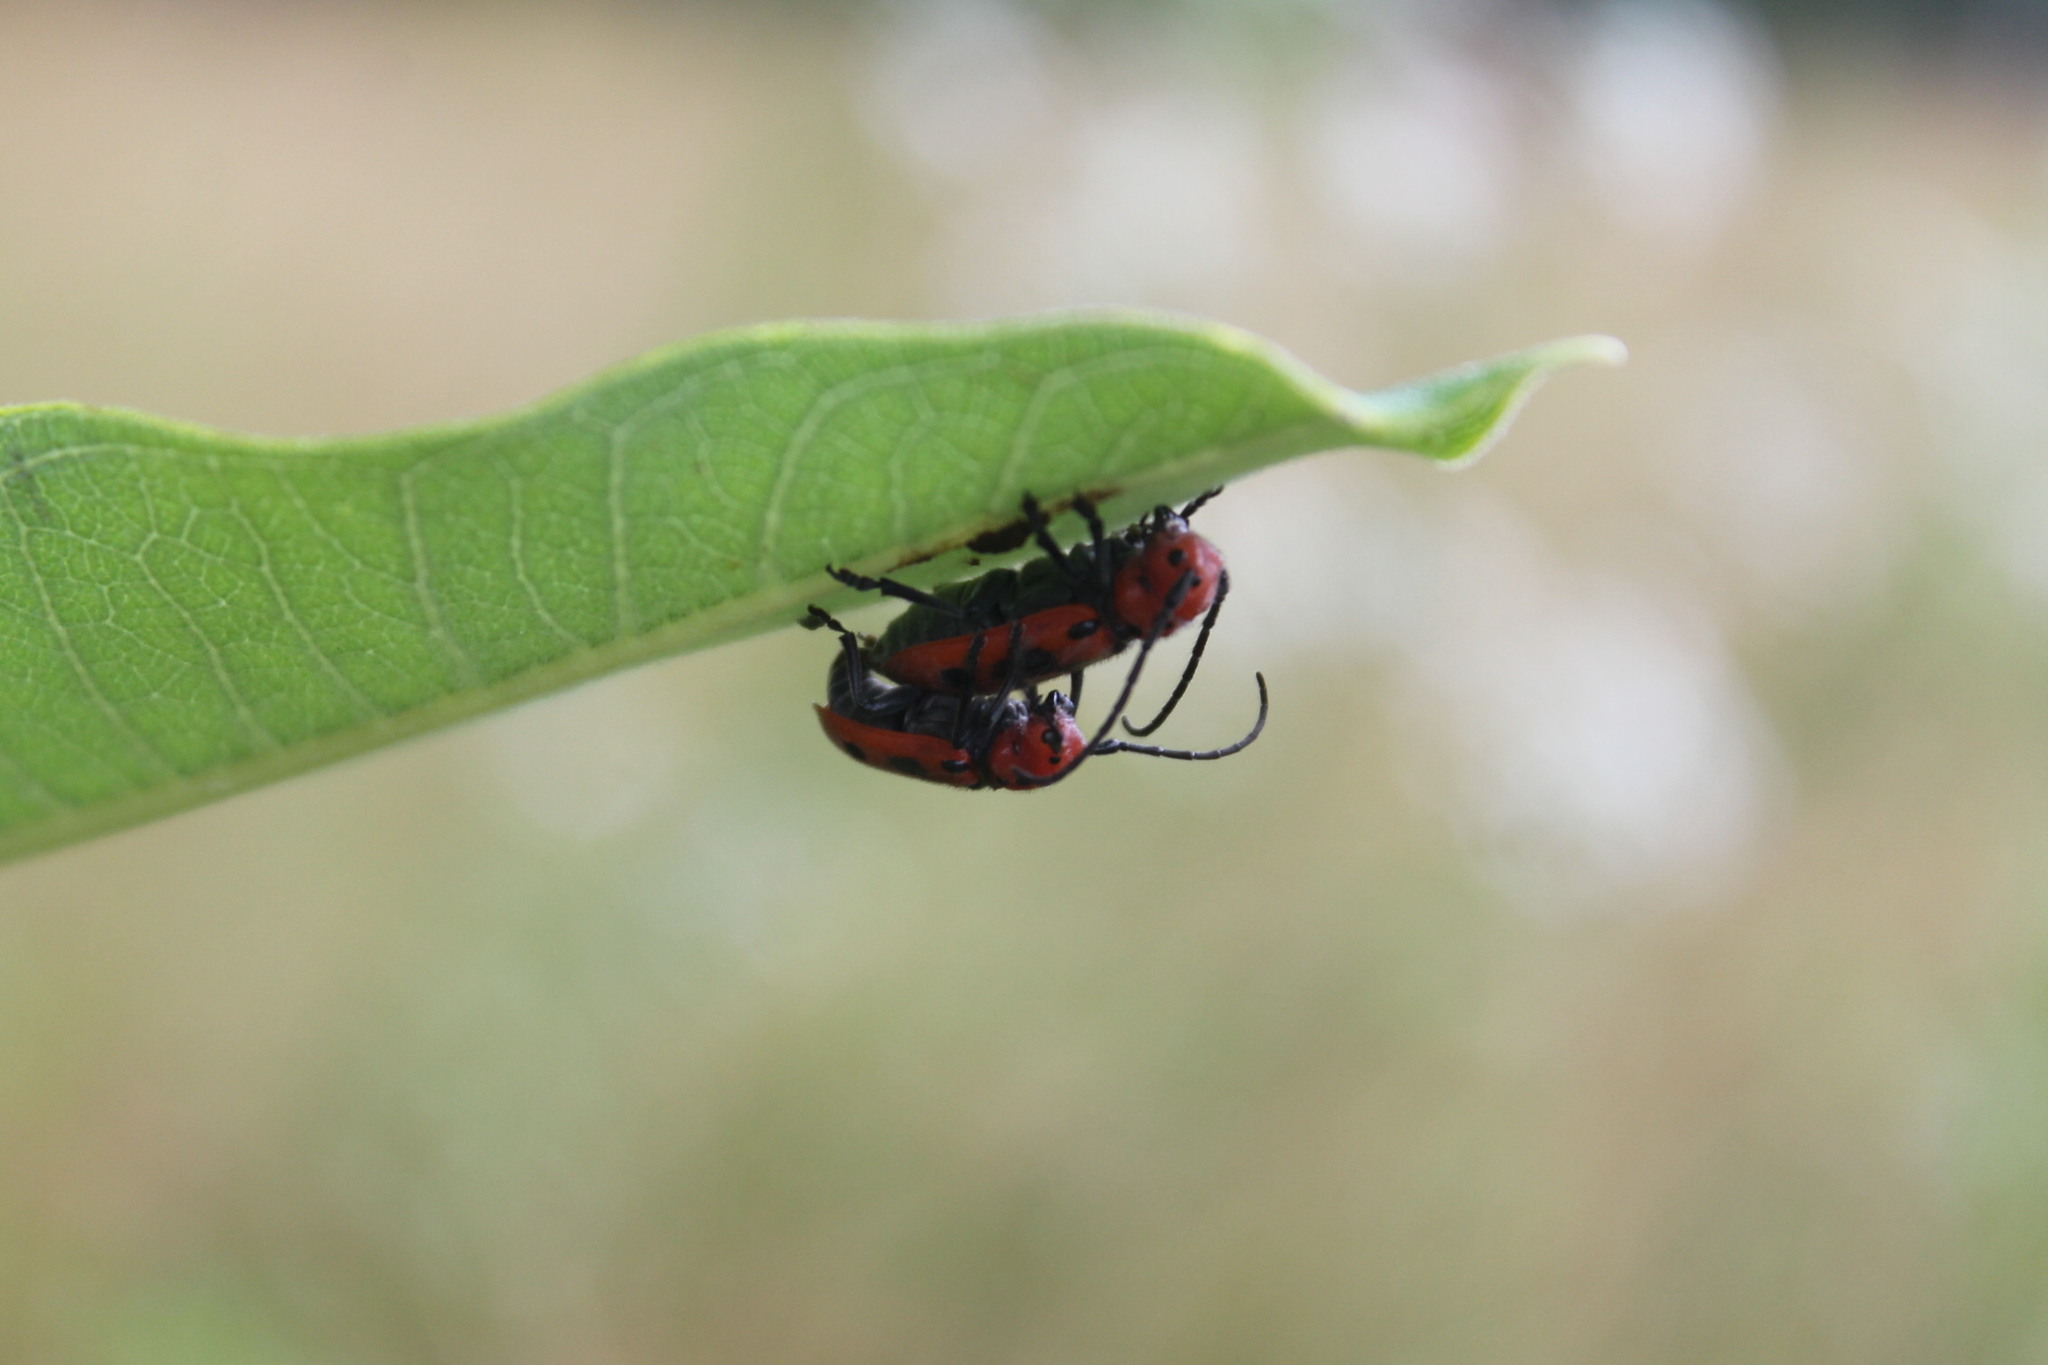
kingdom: Animalia
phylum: Arthropoda
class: Insecta
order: Coleoptera
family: Cerambycidae
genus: Tetraopes
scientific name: Tetraopes tetrophthalmus
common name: Red milkweed beetle
